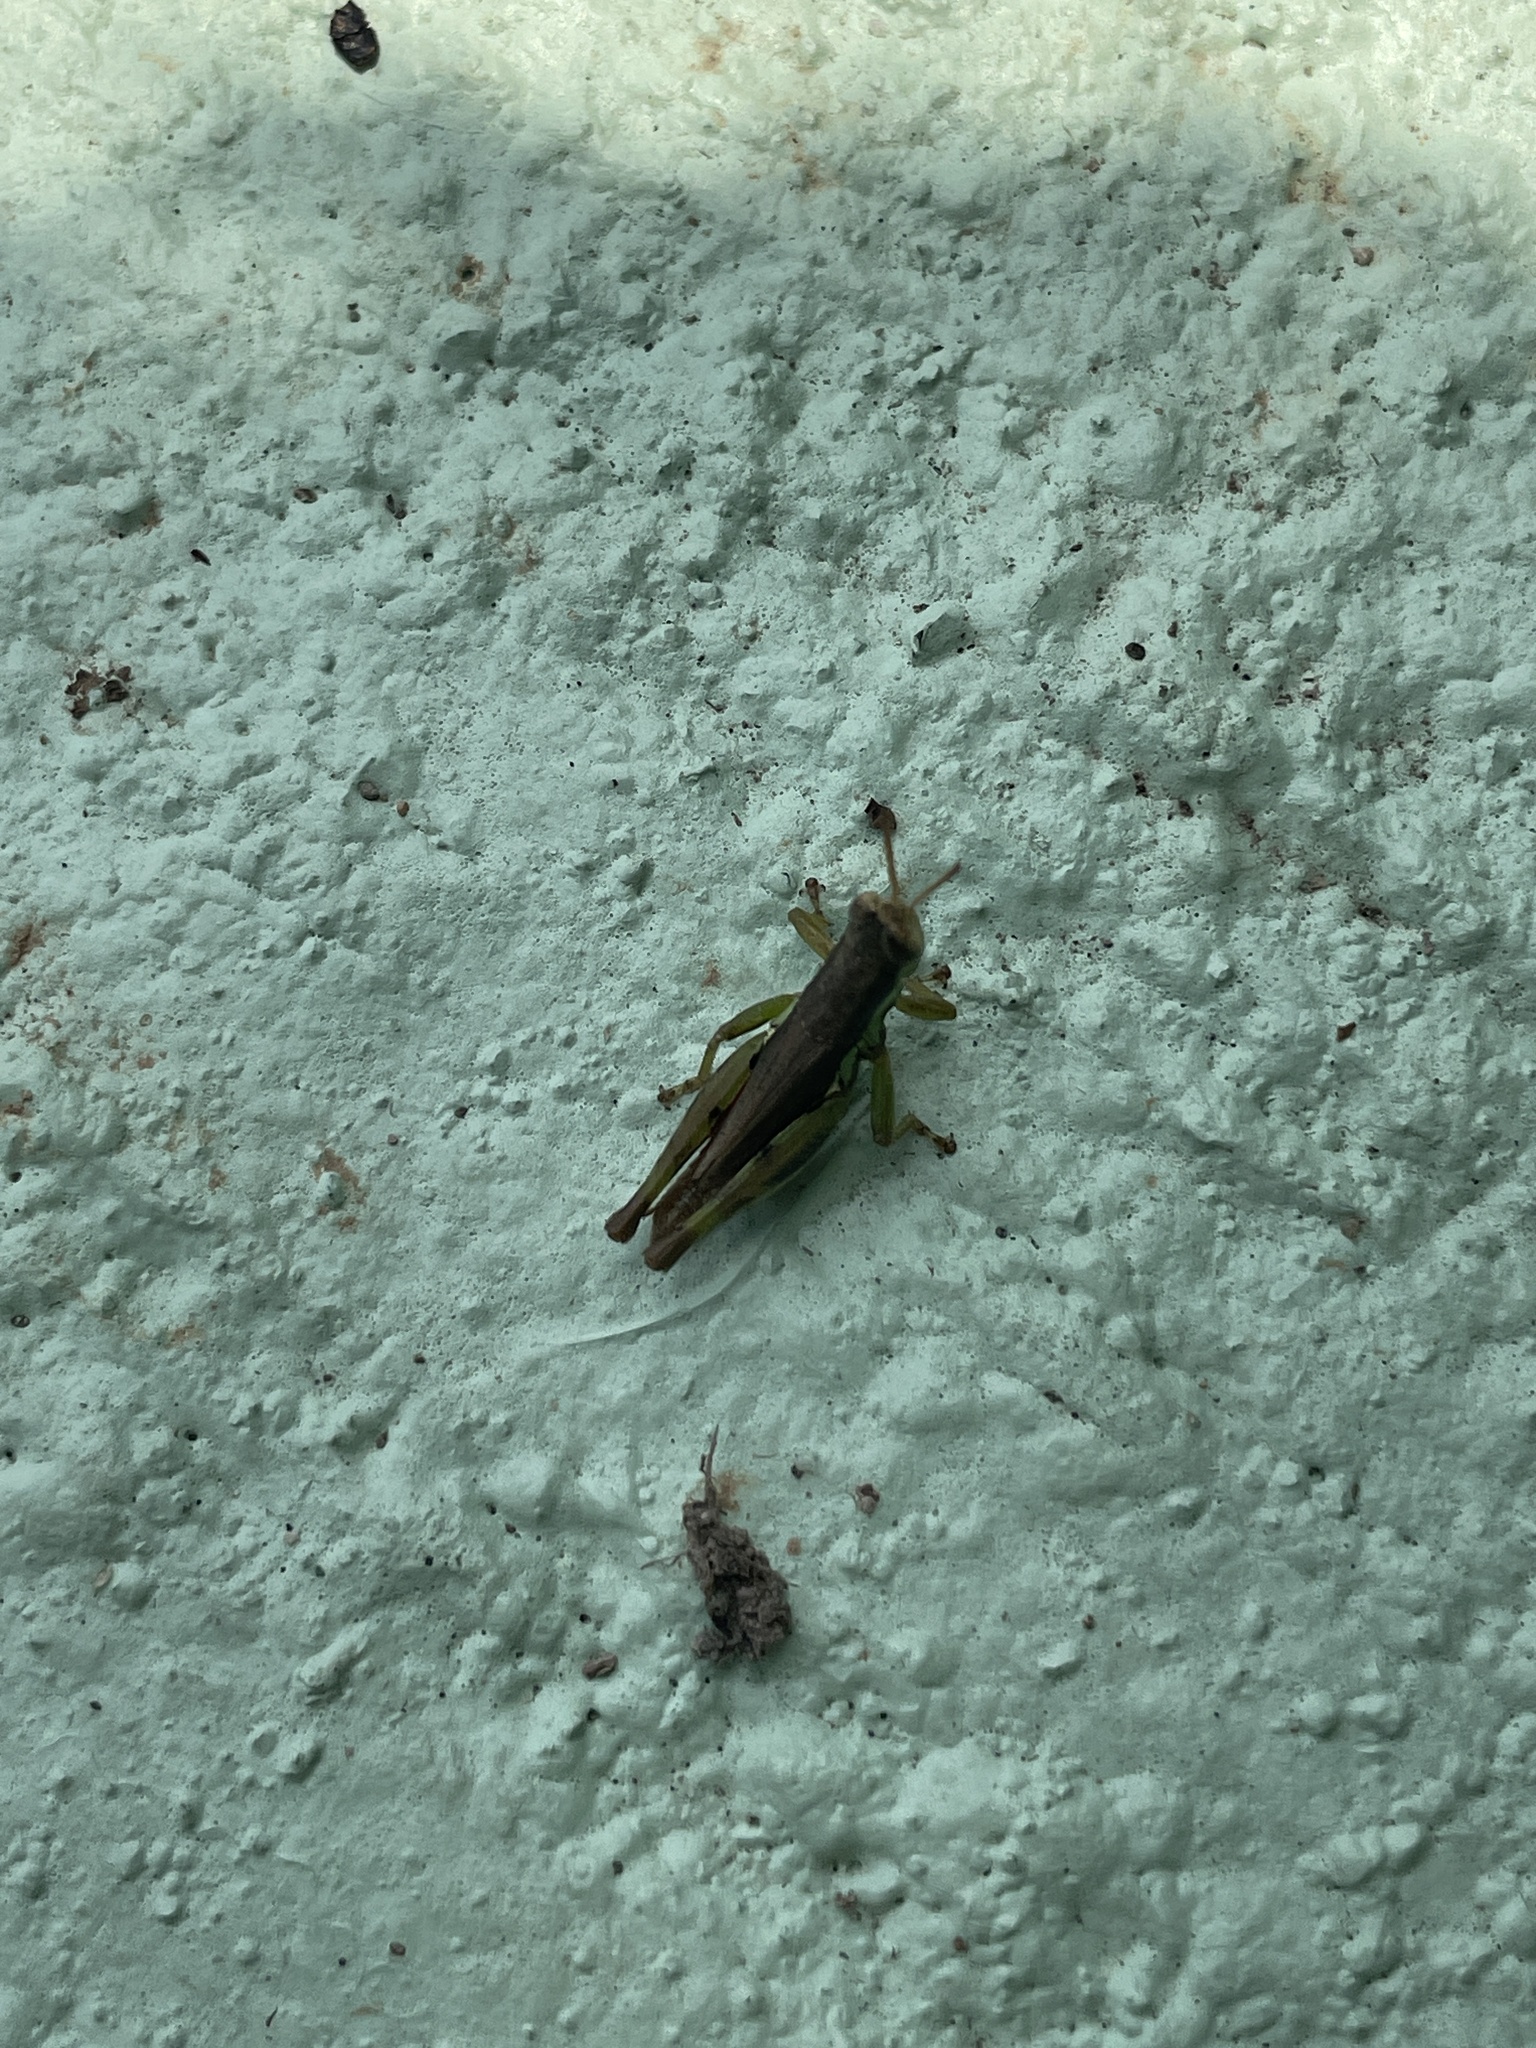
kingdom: Animalia
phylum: Arthropoda
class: Insecta
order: Orthoptera
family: Acrididae
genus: Pseudoxya
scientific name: Pseudoxya diminuta
